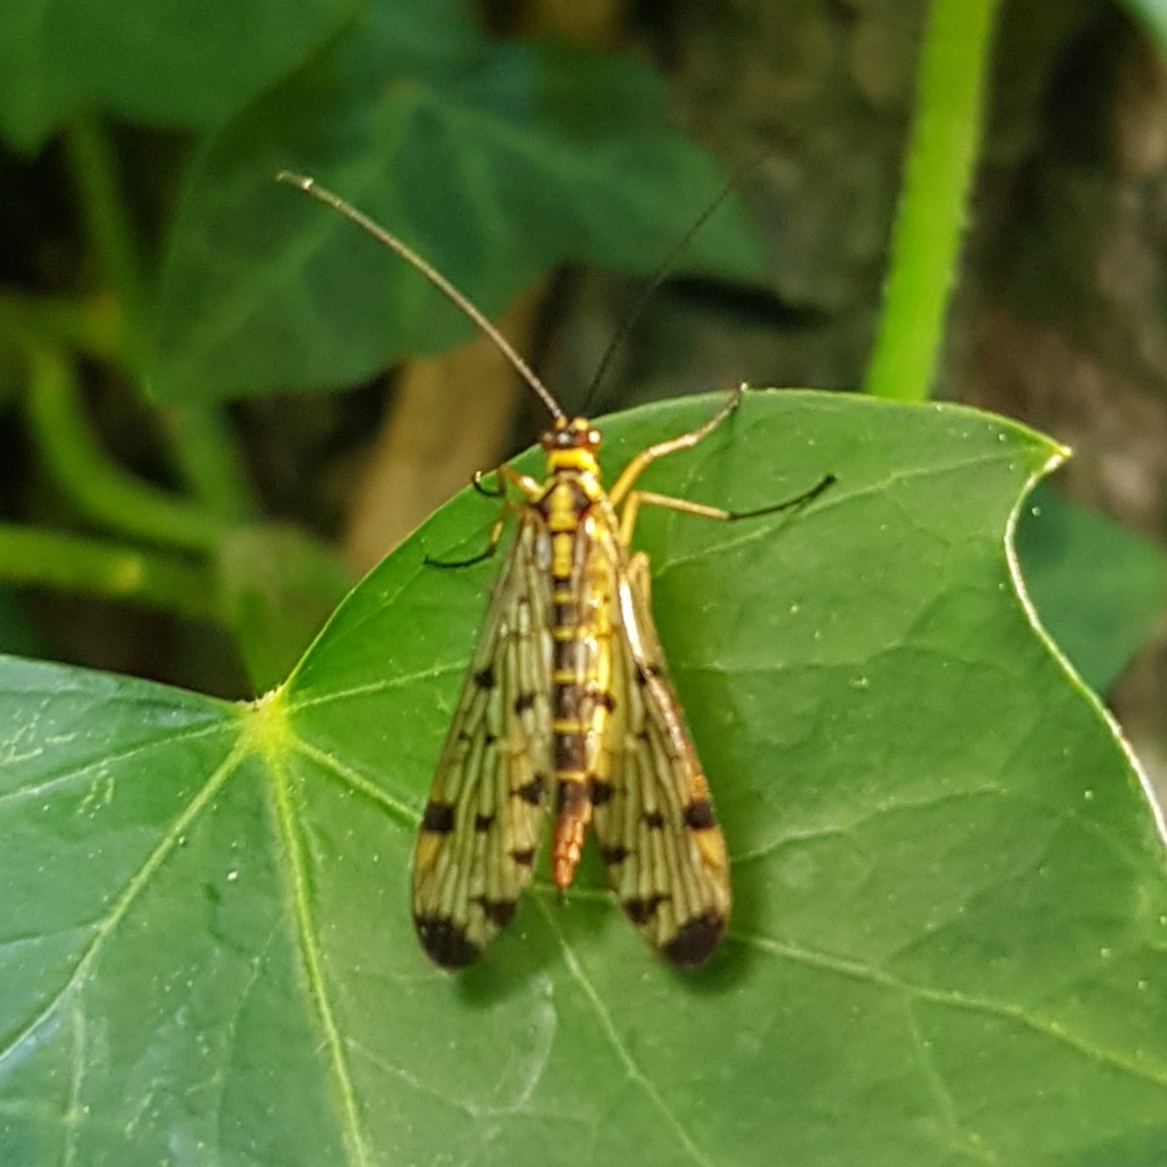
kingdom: Animalia
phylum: Arthropoda
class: Insecta
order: Mecoptera
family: Panorpidae
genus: Panorpa
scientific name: Panorpa germanica
